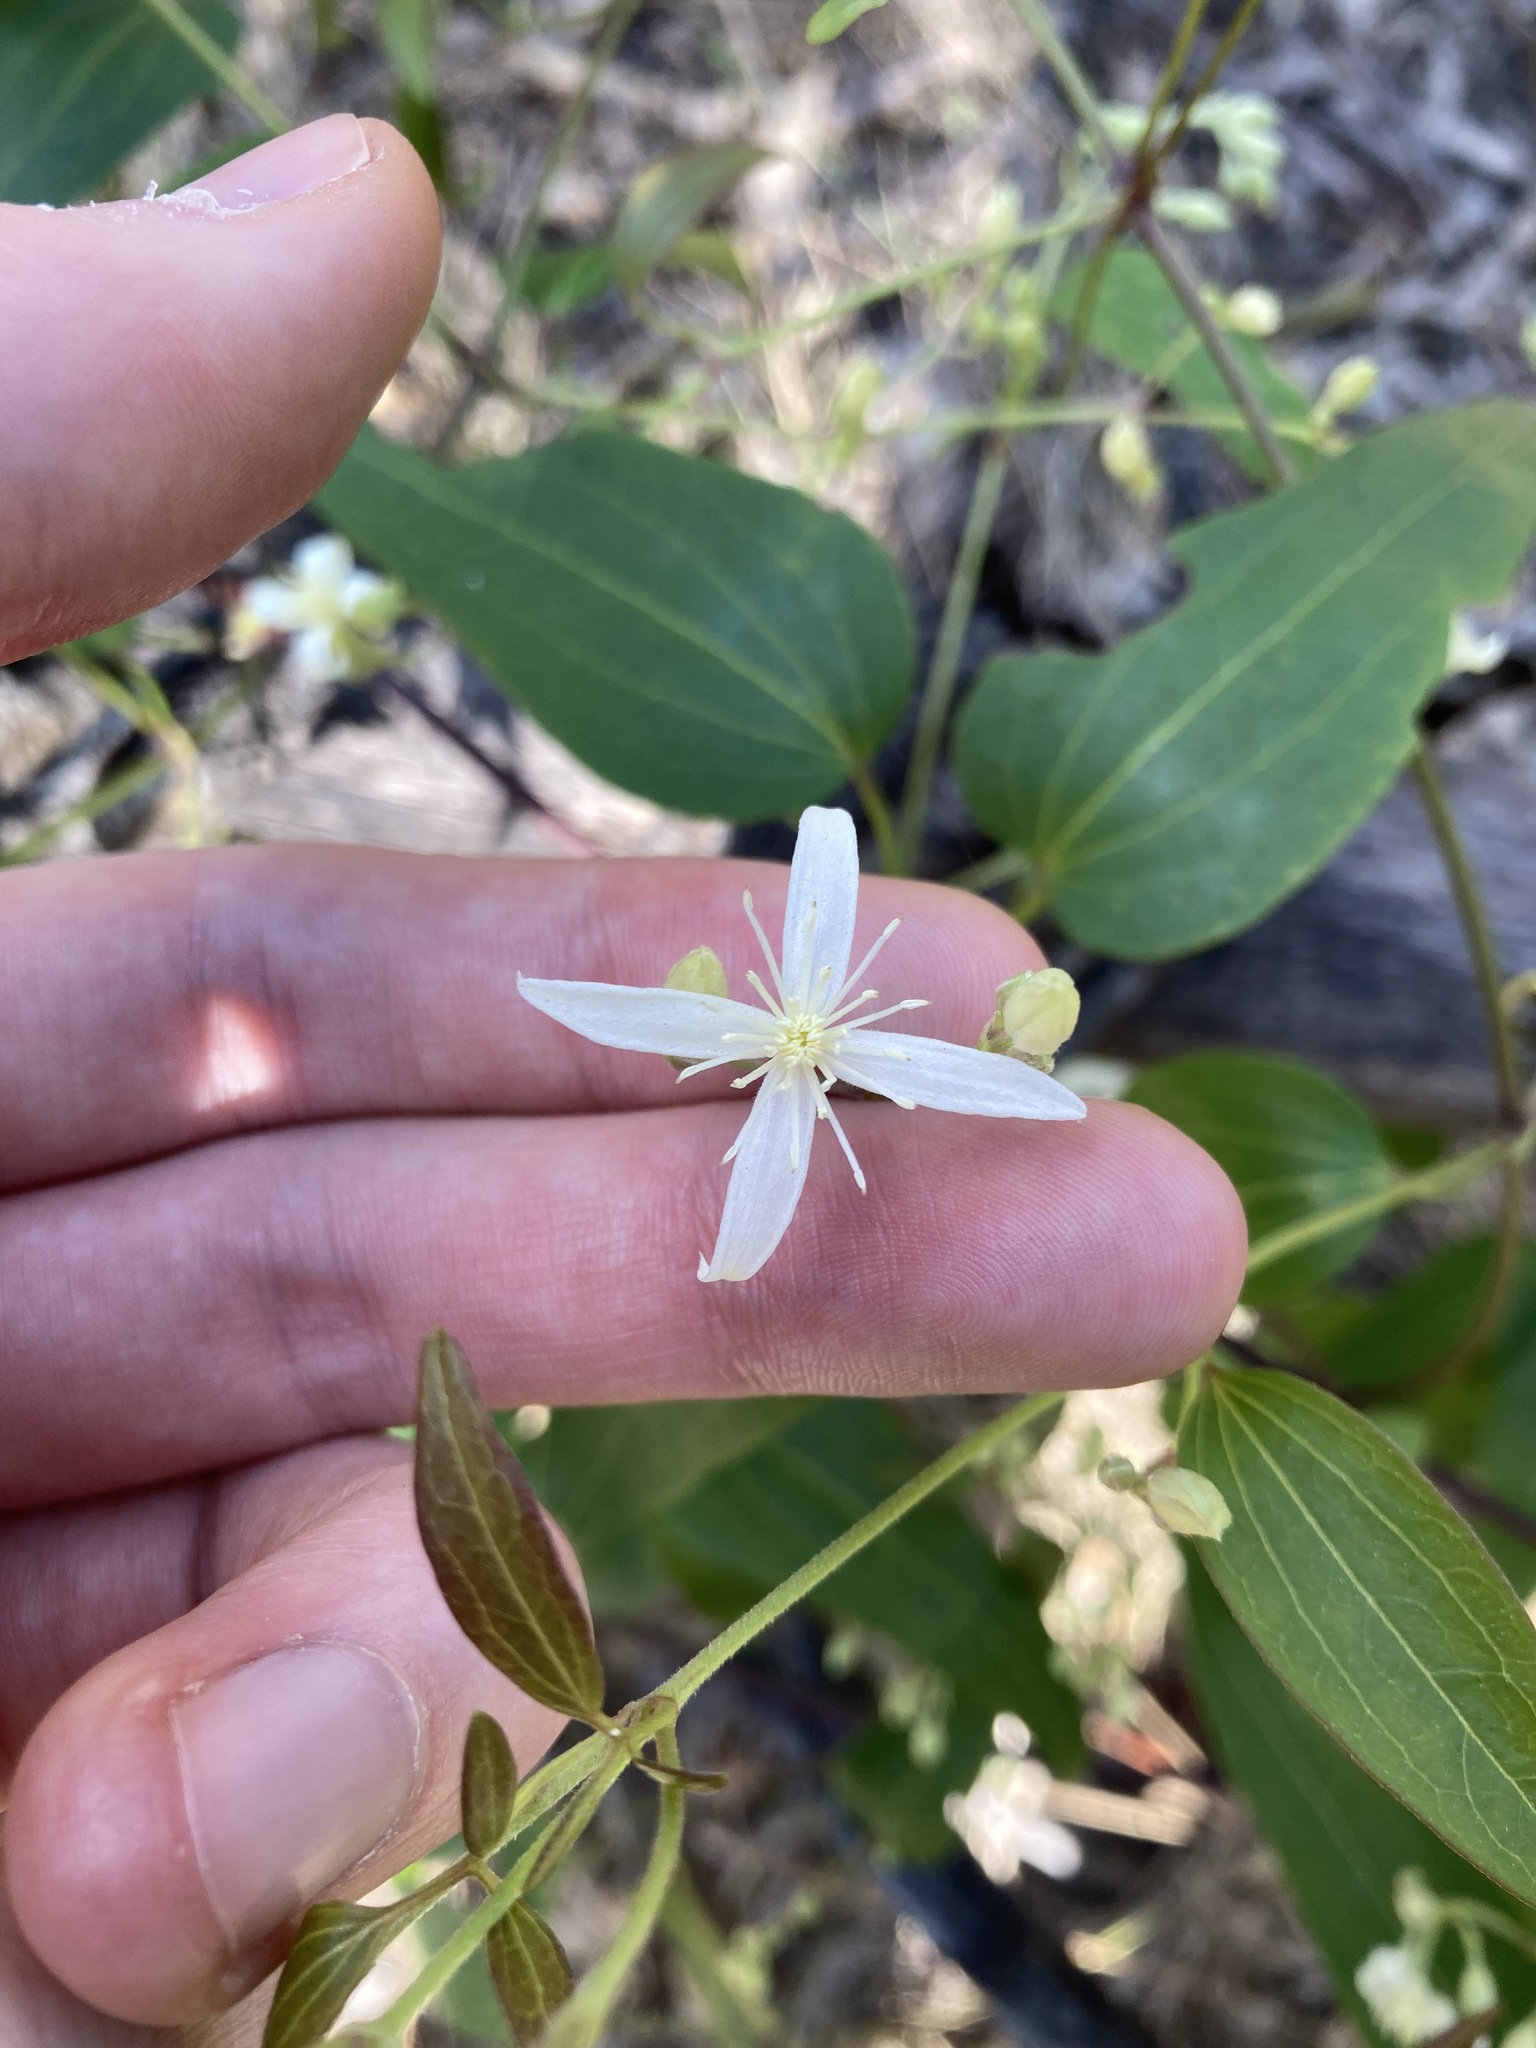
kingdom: Plantae
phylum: Tracheophyta
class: Magnoliopsida
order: Ranunculales
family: Ranunculaceae
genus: Clematis
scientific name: Clematis glycinoides
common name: Forest clematis
